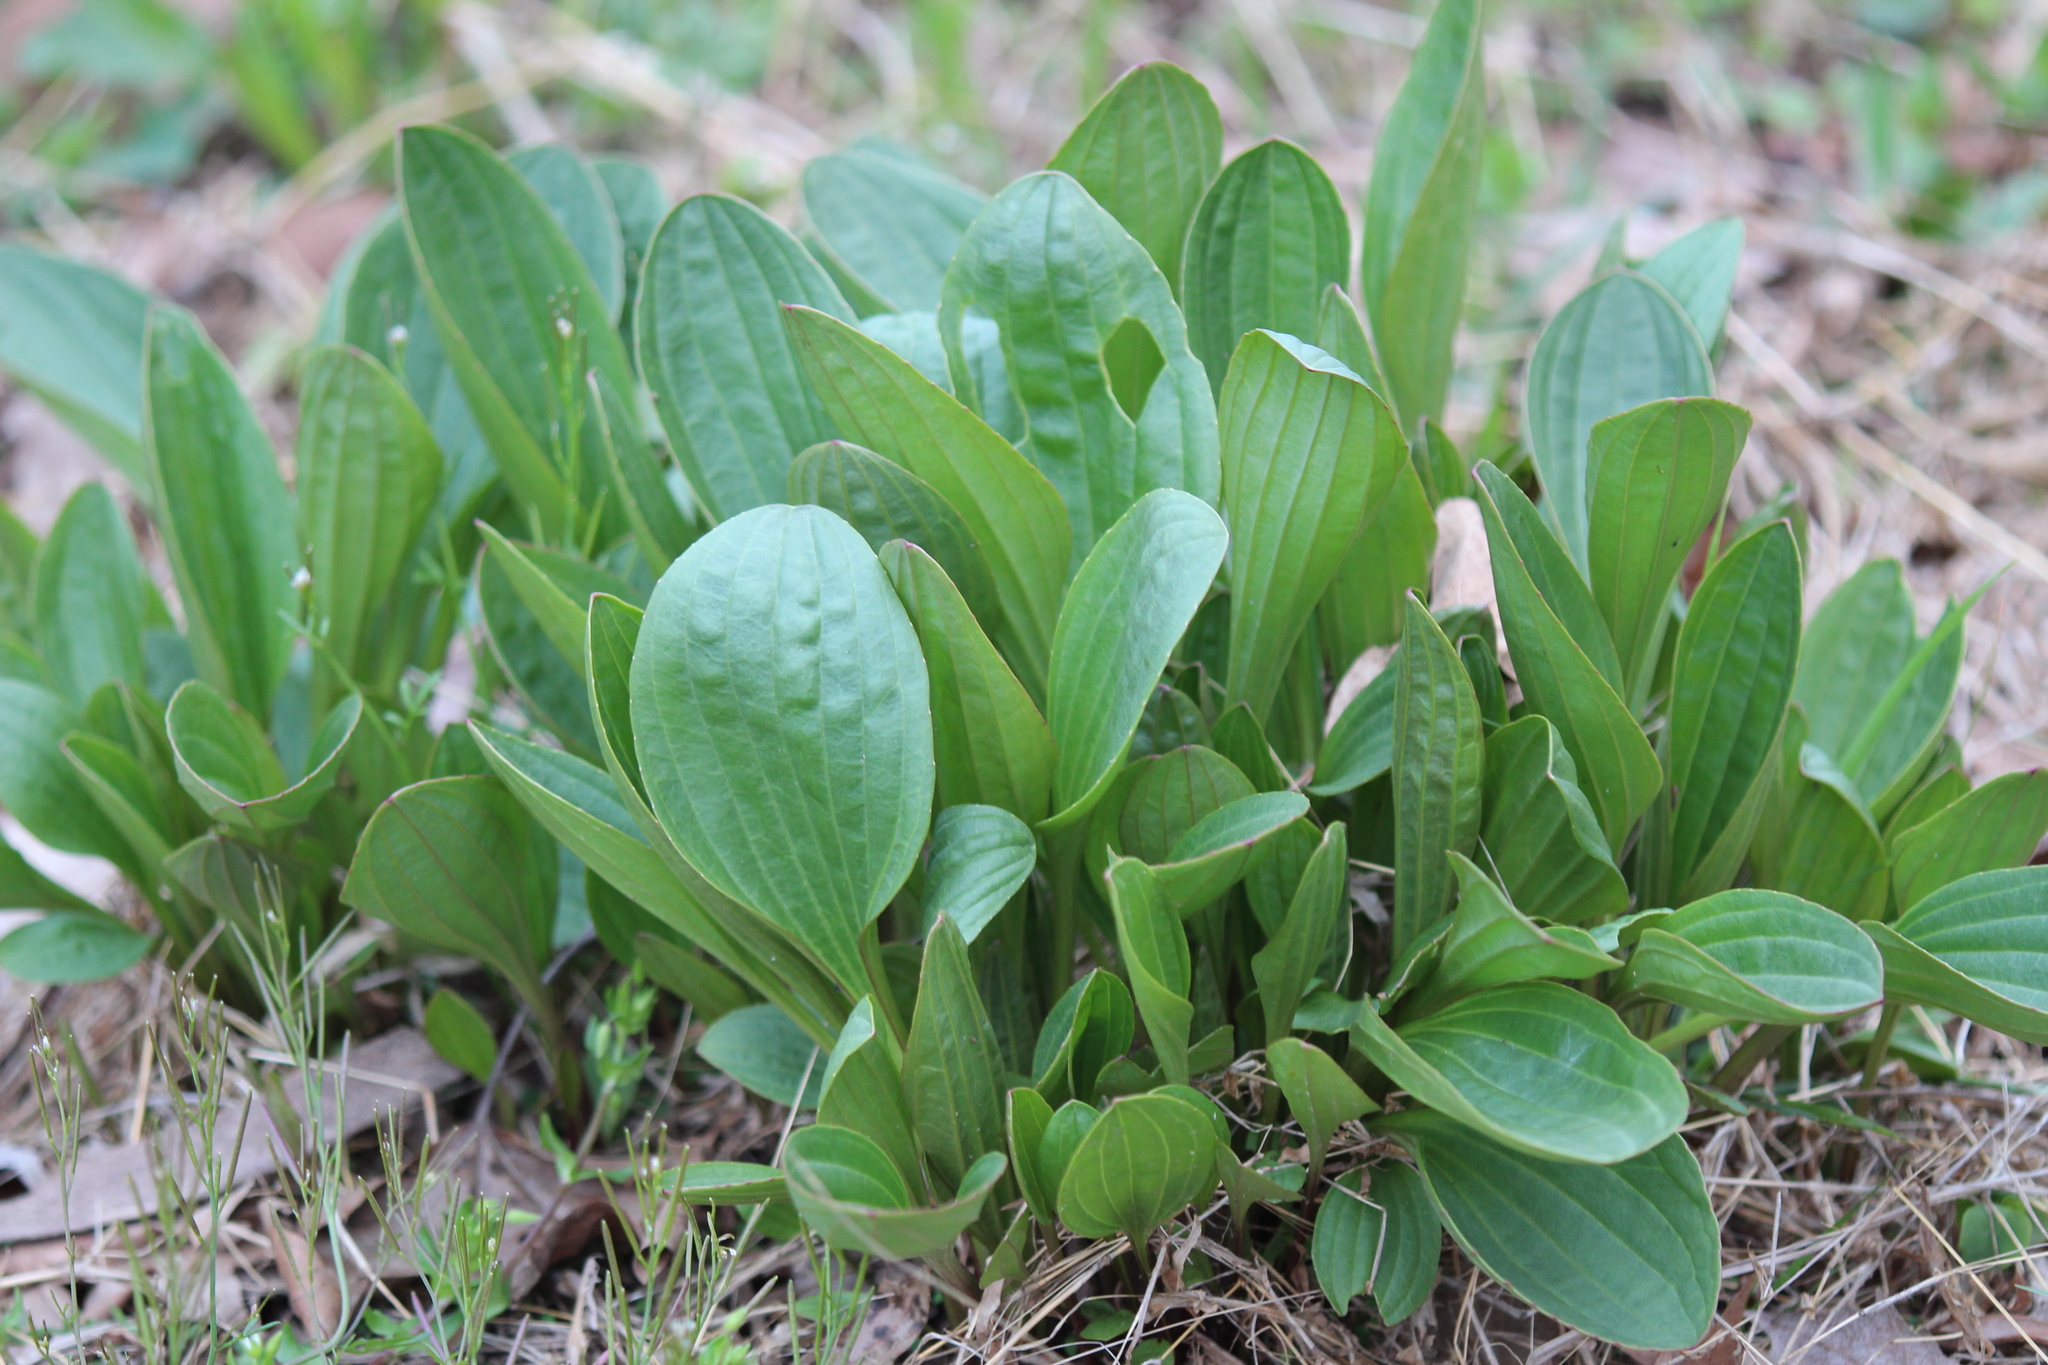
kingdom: Plantae
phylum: Tracheophyta
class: Magnoliopsida
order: Asterales
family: Asteraceae
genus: Arnoglossum
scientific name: Arnoglossum plantagineum
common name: Groove-stemmed indian-plantain
